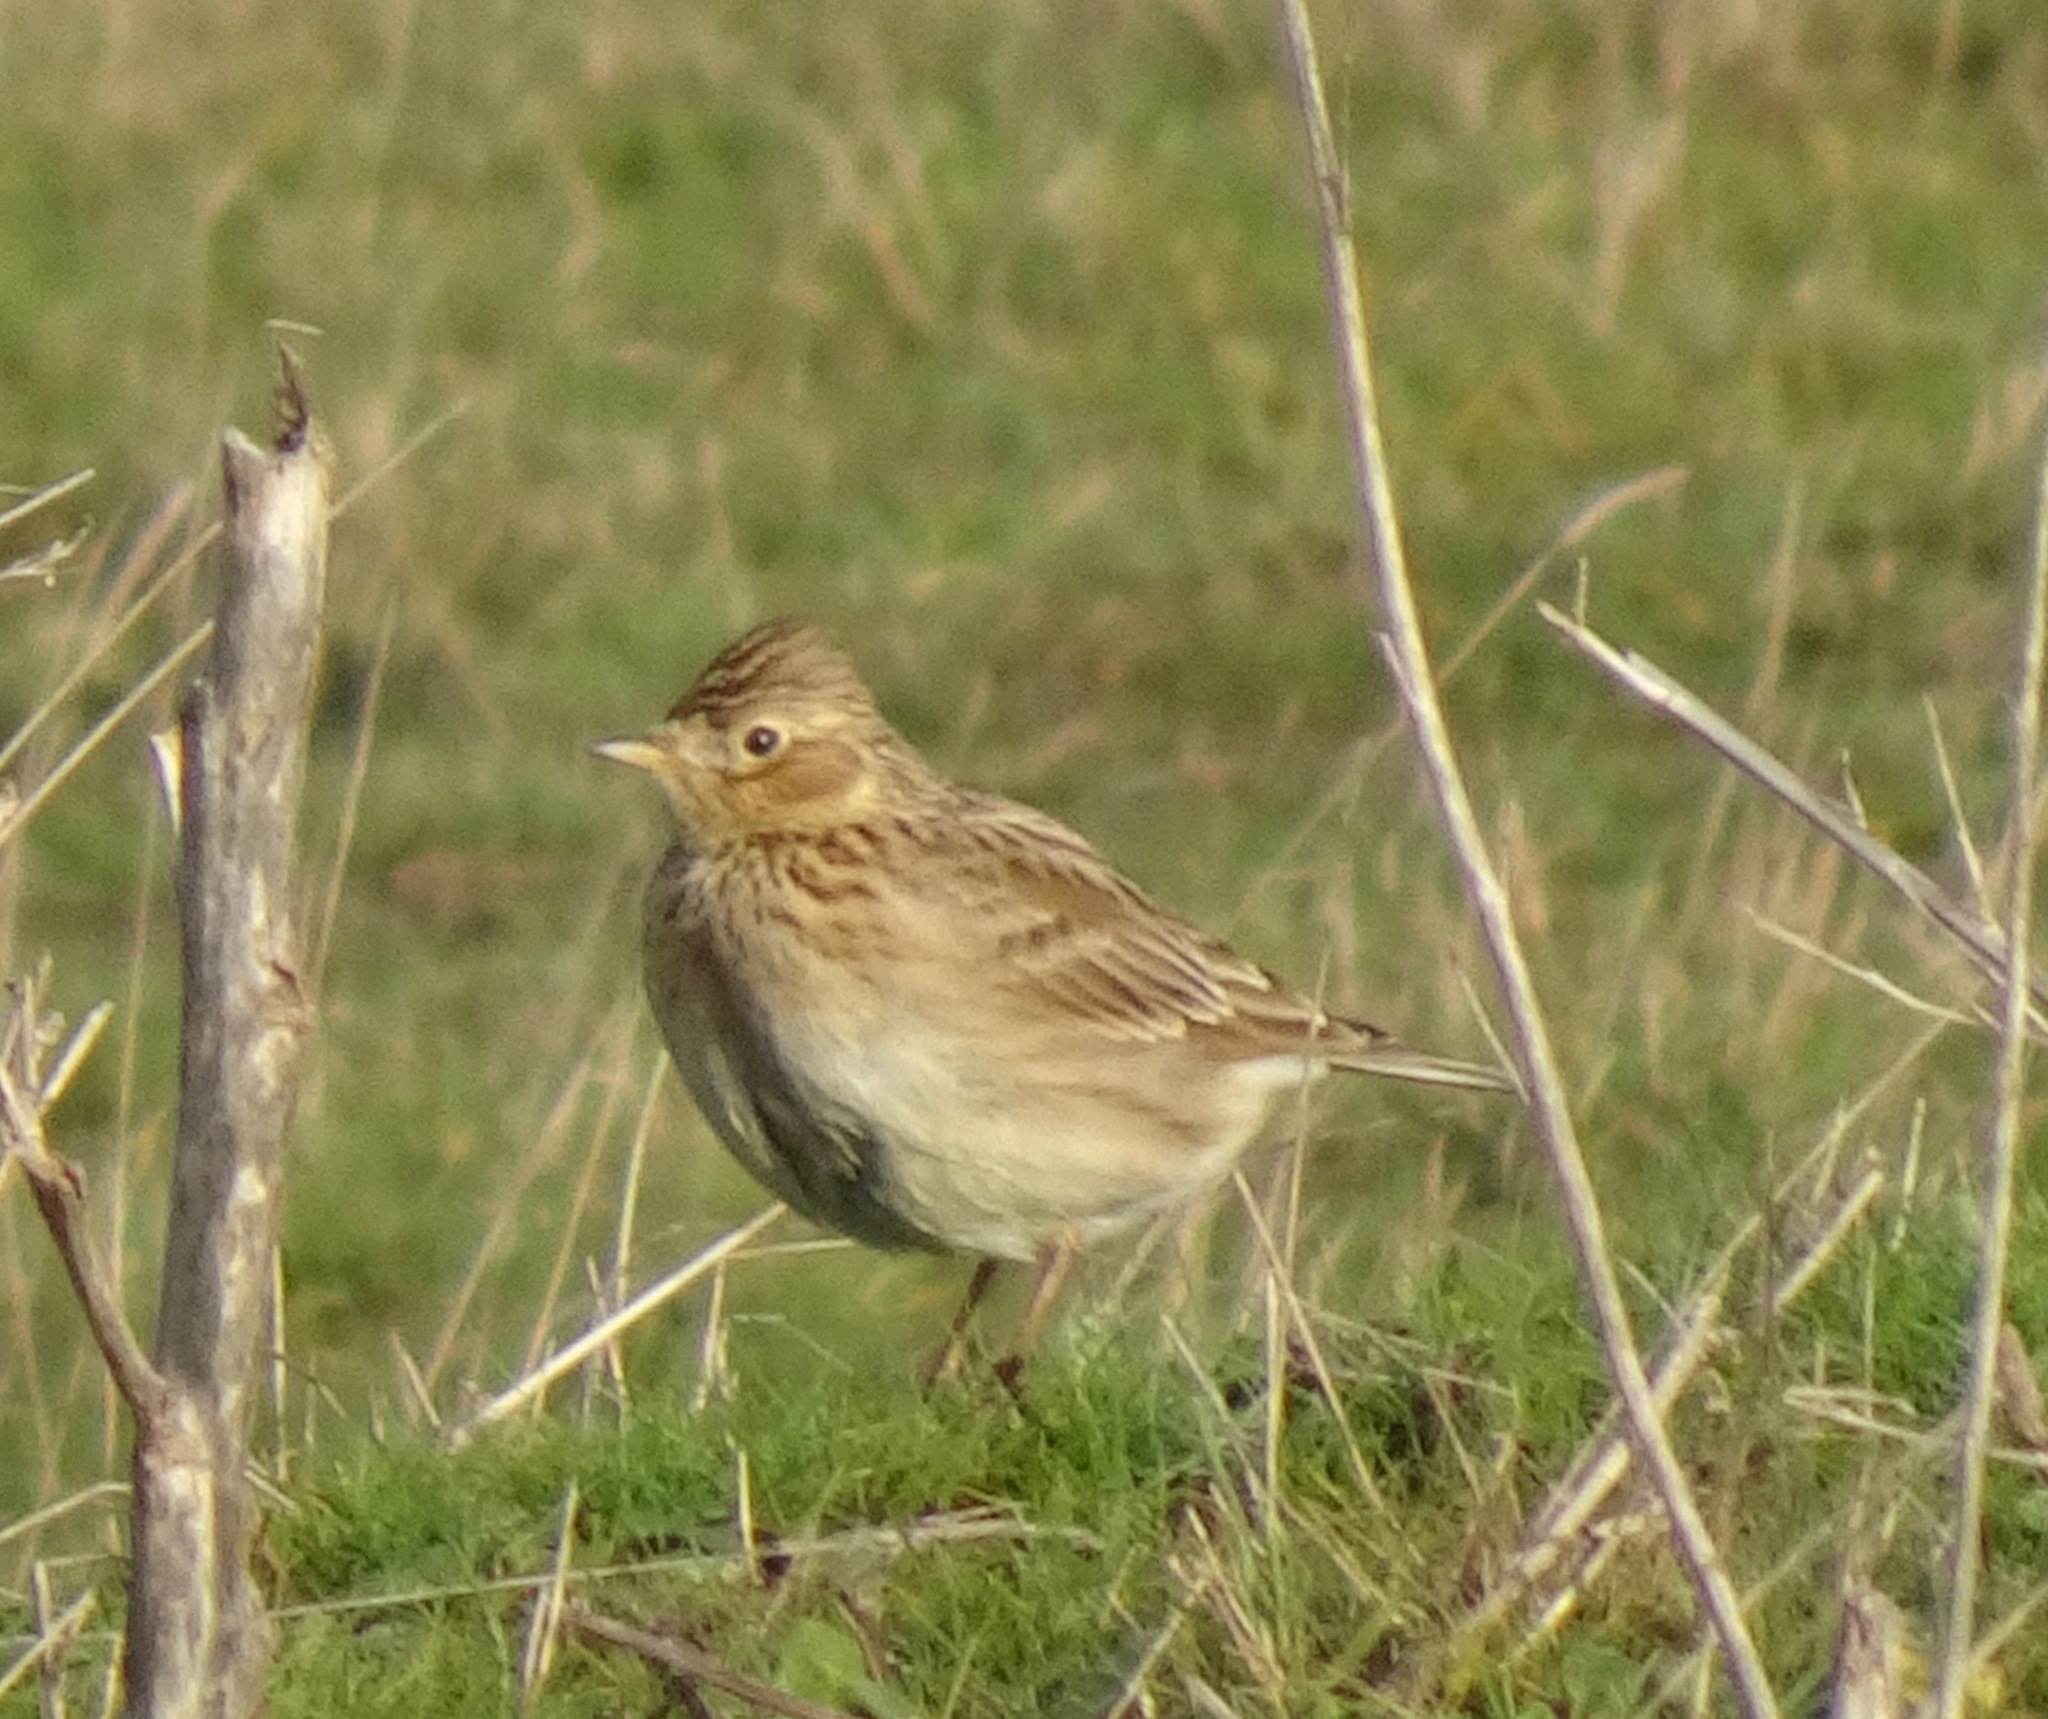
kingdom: Animalia
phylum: Chordata
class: Aves
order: Passeriformes
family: Alaudidae
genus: Alauda
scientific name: Alauda arvensis
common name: Eurasian skylark
